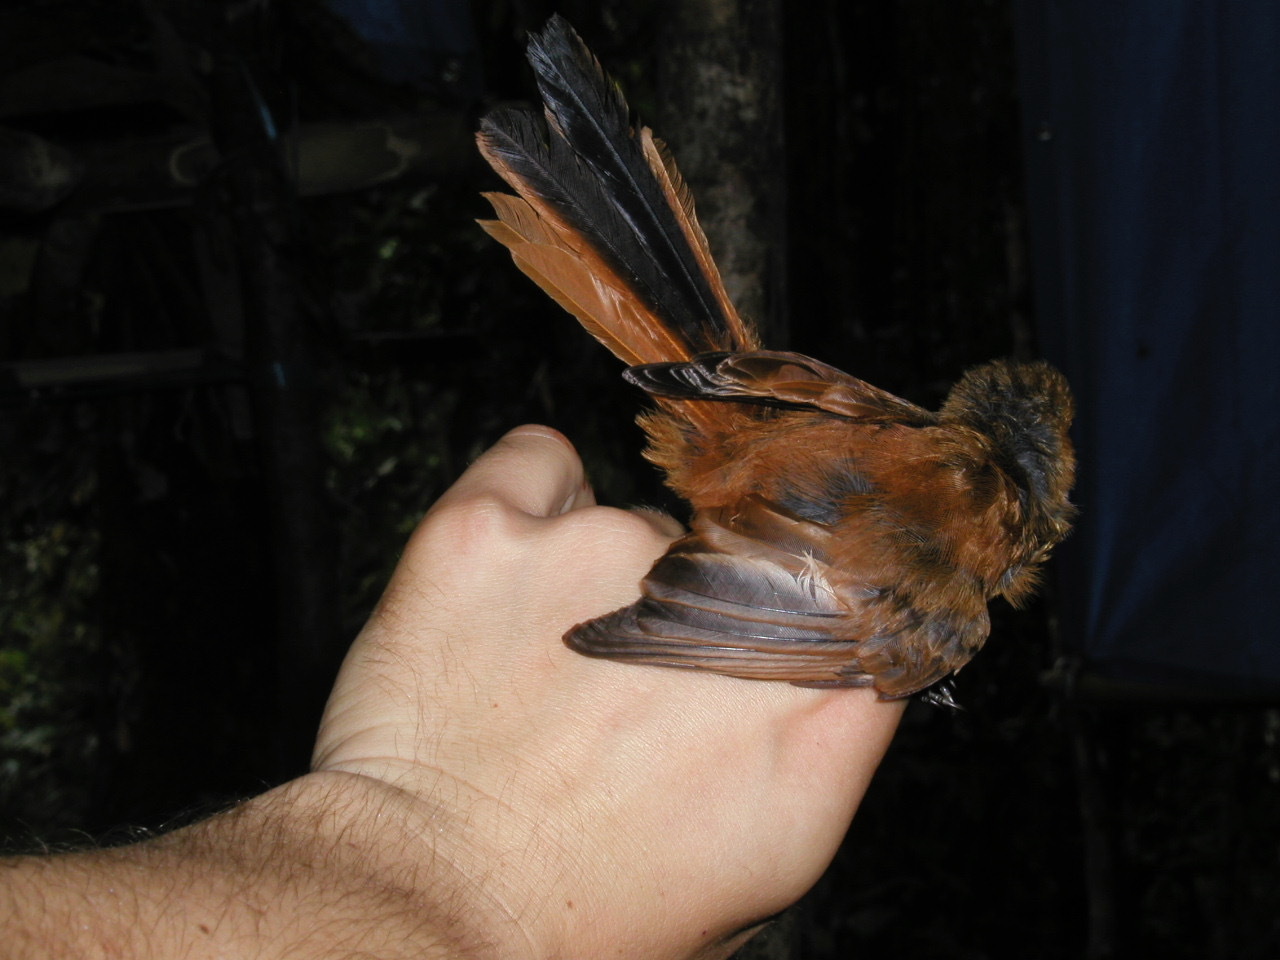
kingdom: Animalia
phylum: Chordata
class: Aves
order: Passeriformes
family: Rhipiduridae
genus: Rhipidura
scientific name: Rhipidura atra
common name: Black fantail
